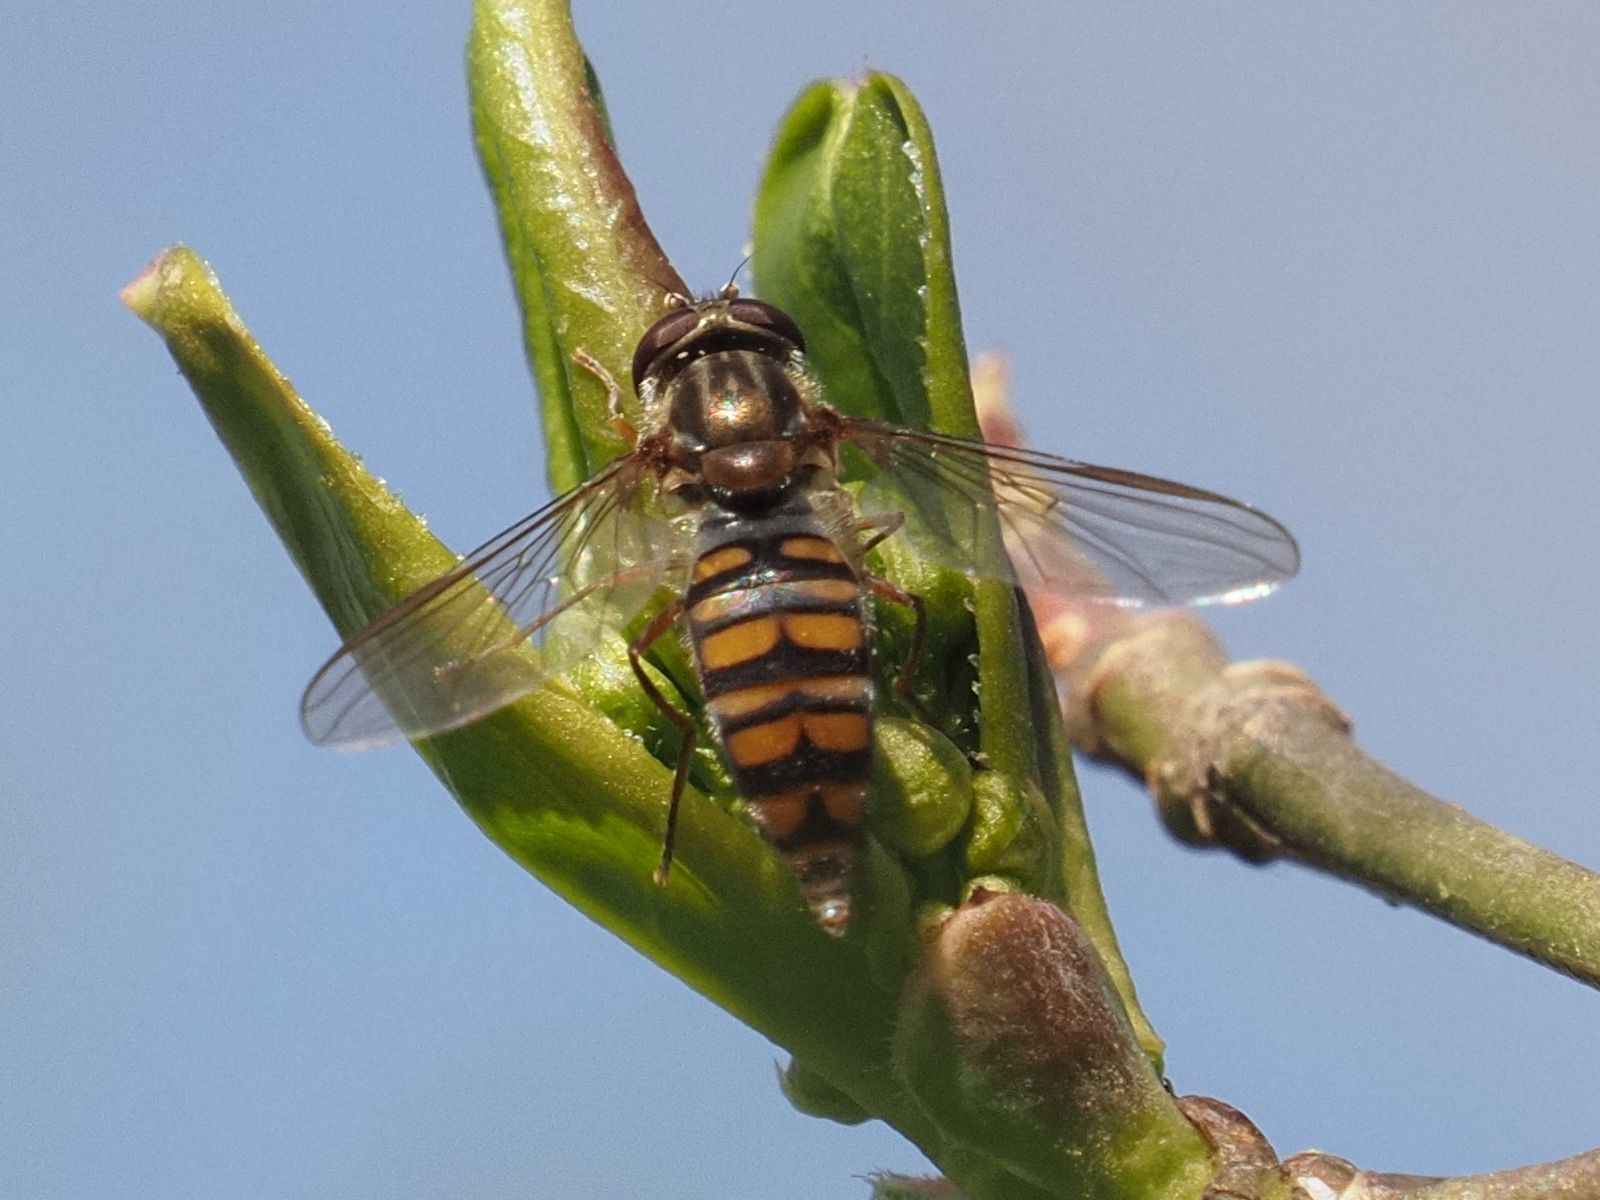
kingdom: Animalia
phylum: Arthropoda
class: Insecta
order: Diptera
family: Syrphidae
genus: Episyrphus
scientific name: Episyrphus balteatus
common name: Marmalade hoverfly
